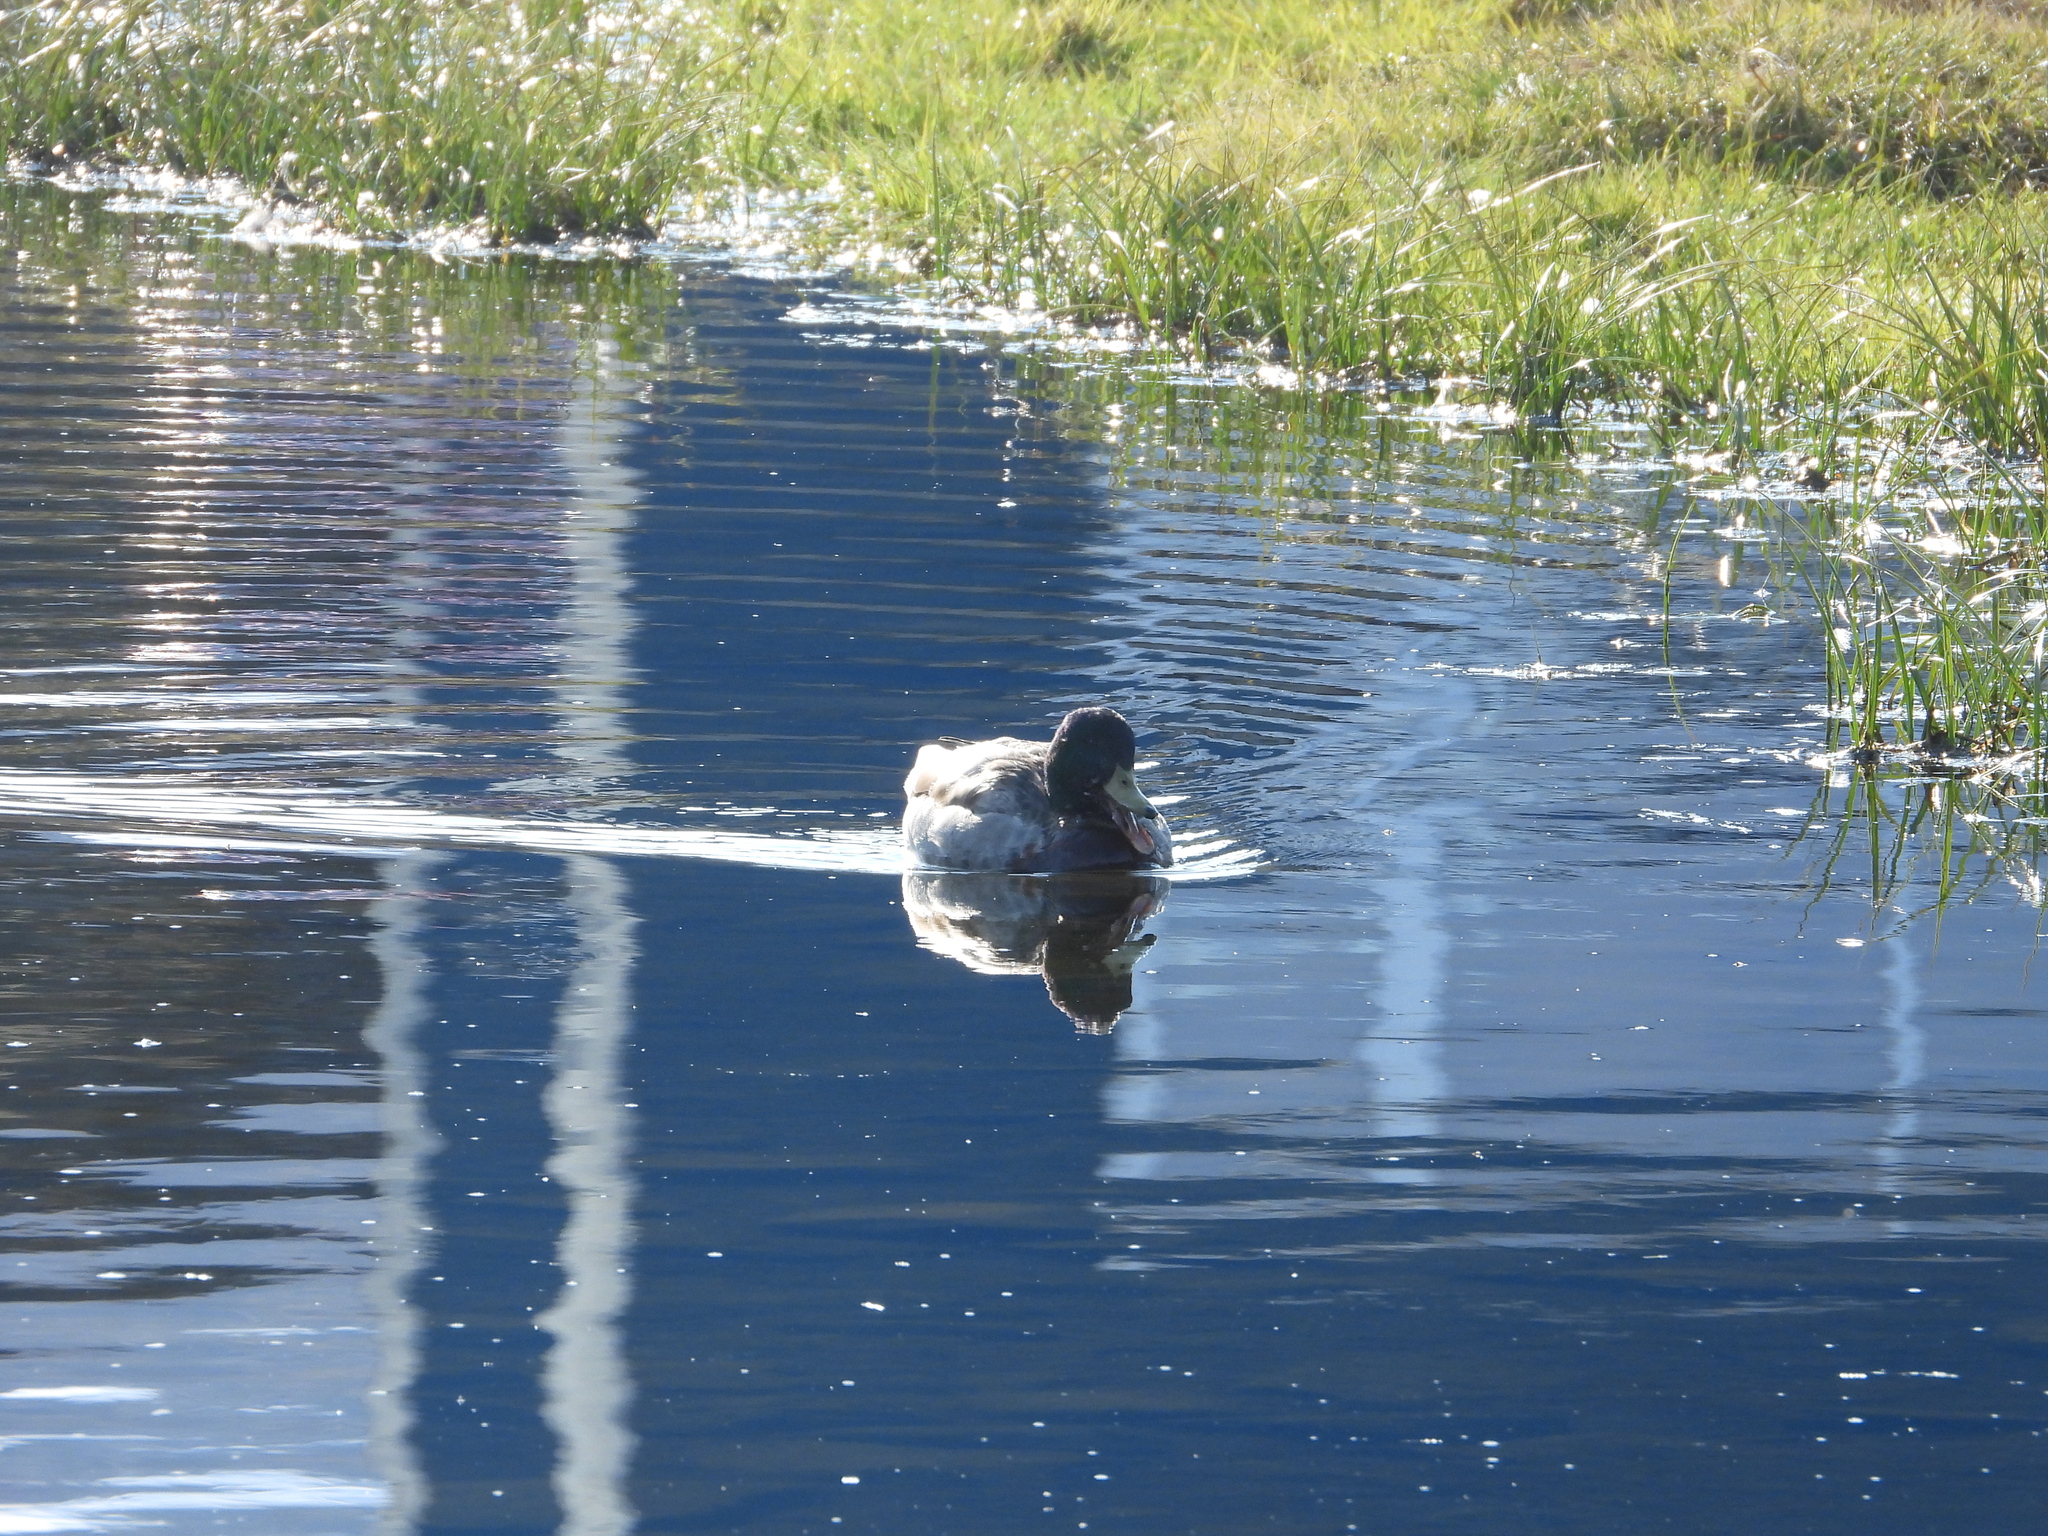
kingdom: Animalia
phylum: Chordata
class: Aves
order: Anseriformes
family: Anatidae
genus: Anas
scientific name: Anas platyrhynchos
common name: Mallard
